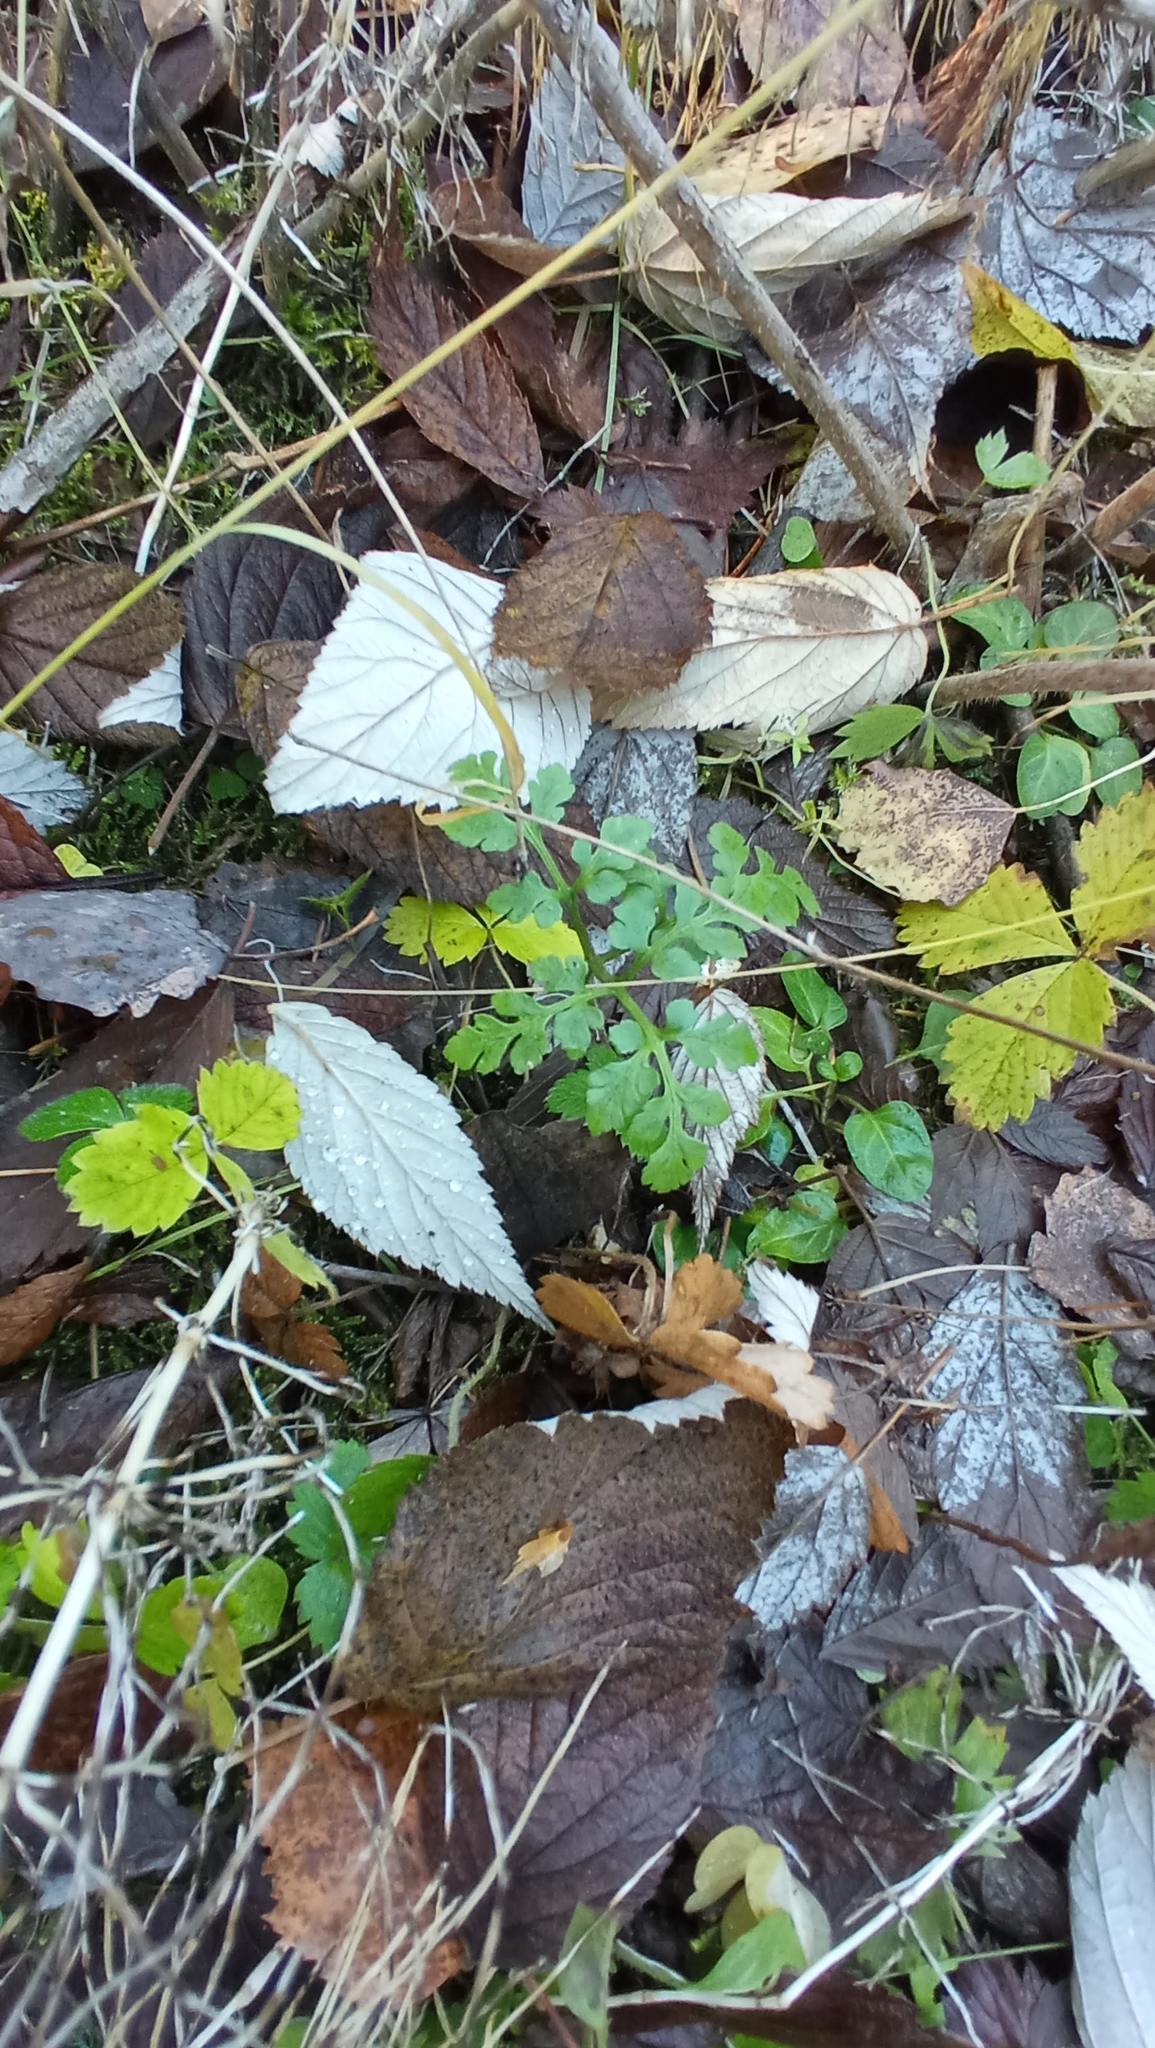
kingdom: Plantae
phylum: Tracheophyta
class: Polypodiopsida
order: Ophioglossales
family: Ophioglossaceae
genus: Sceptridium
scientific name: Sceptridium multifidum
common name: Leathery grape fern
